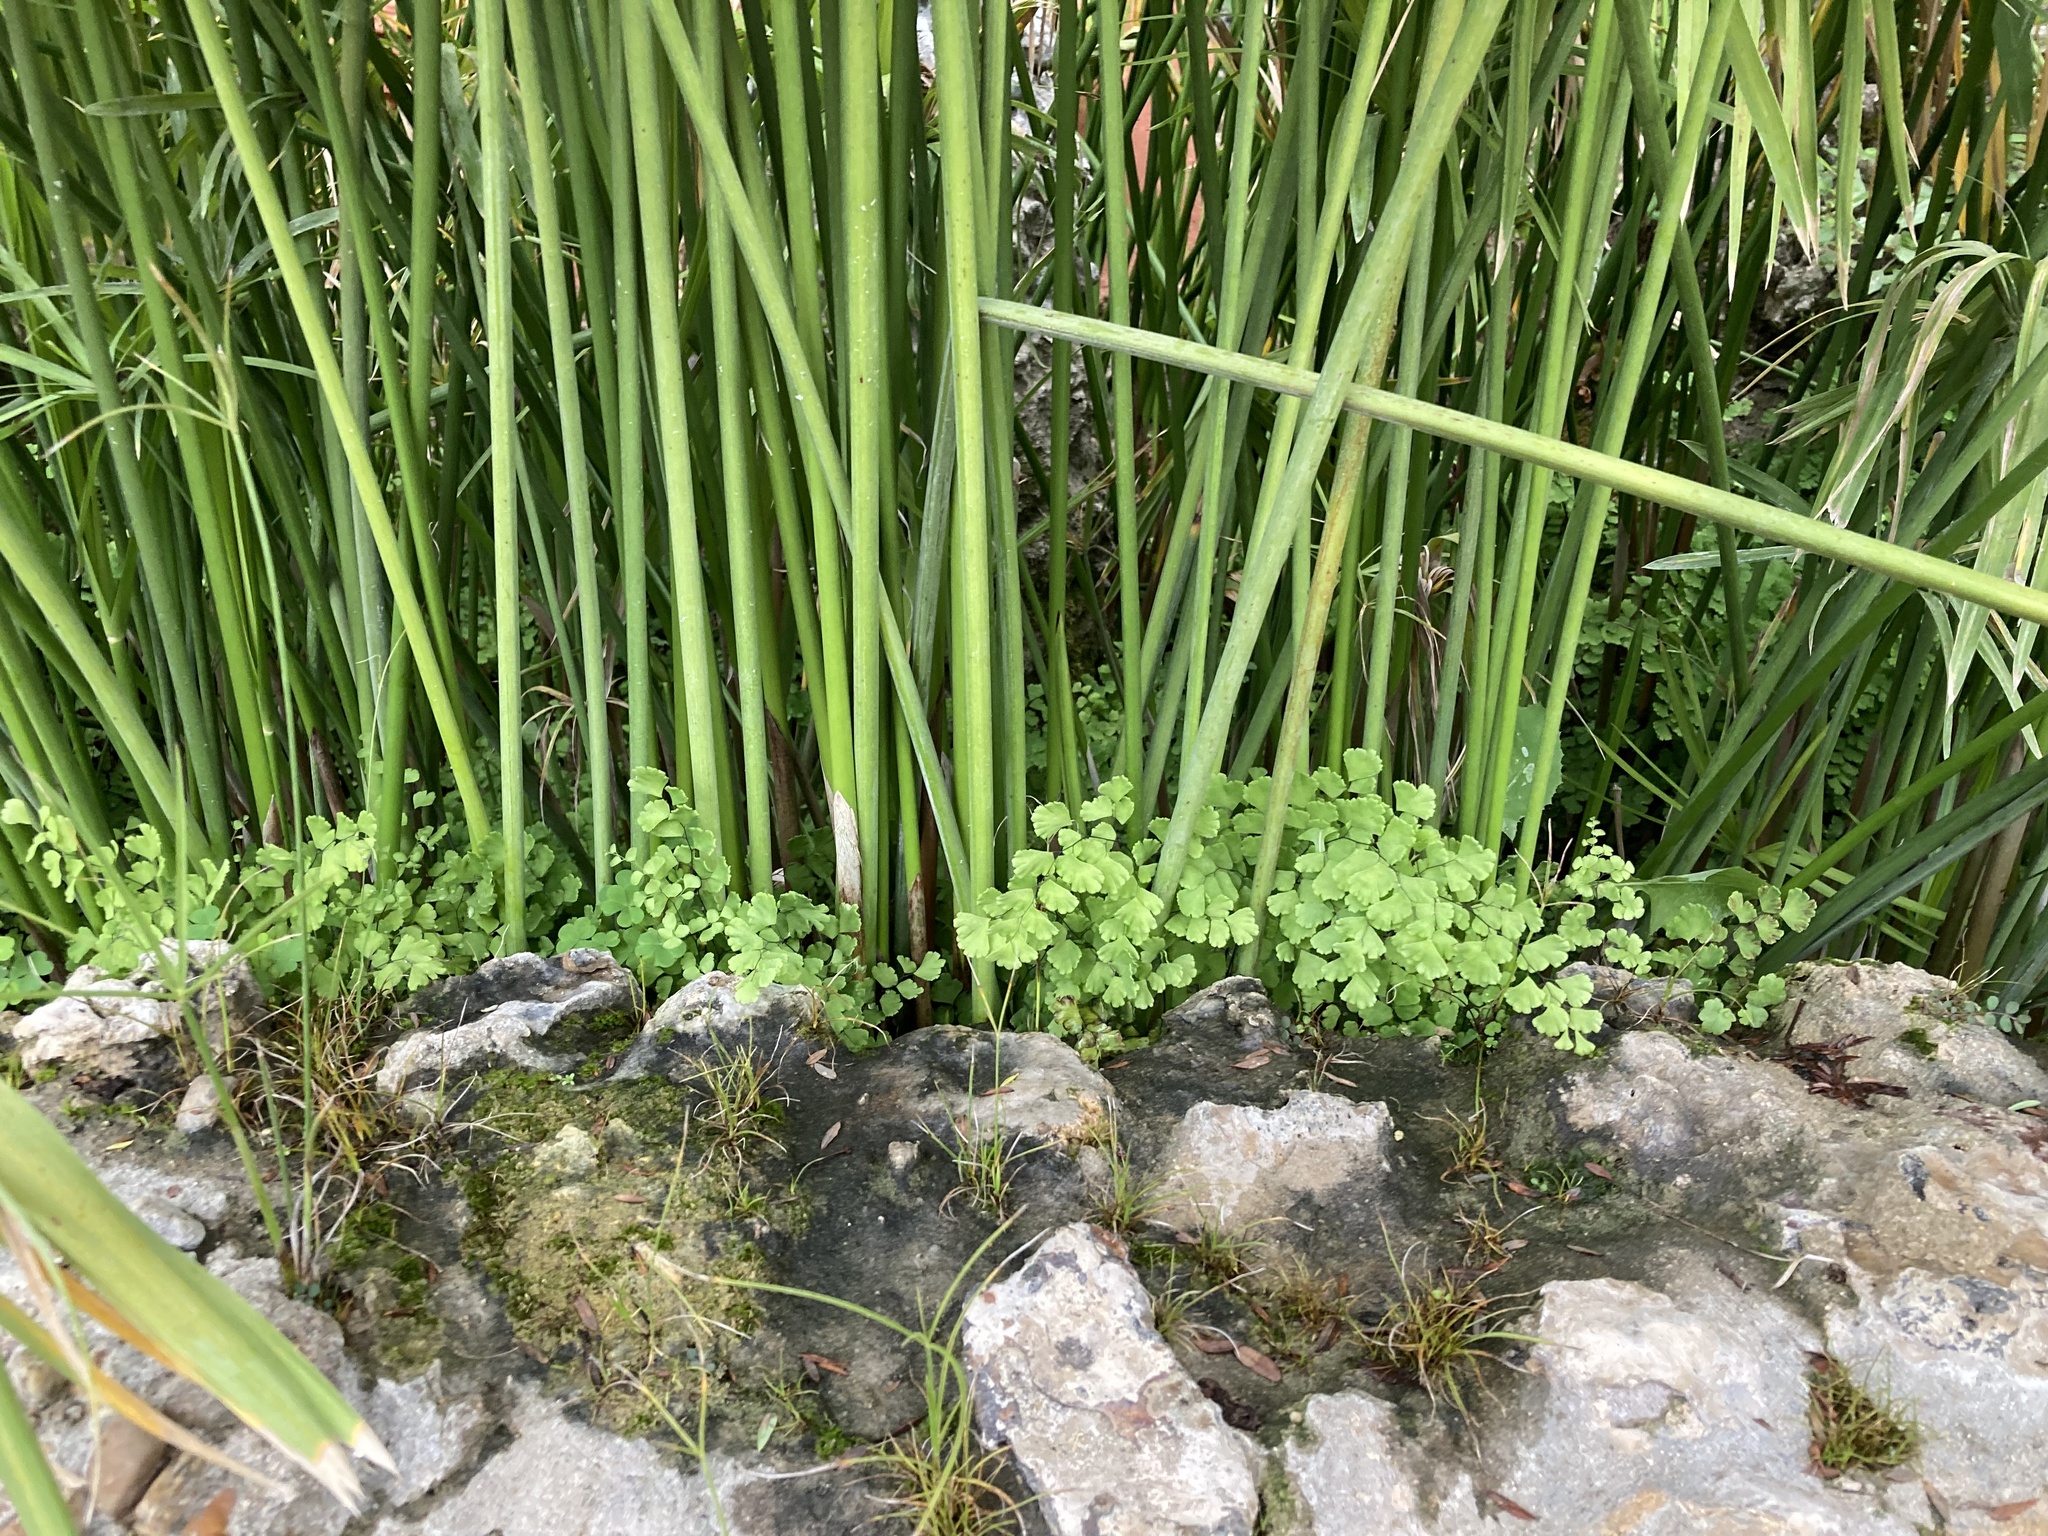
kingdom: Plantae
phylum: Tracheophyta
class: Polypodiopsida
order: Polypodiales
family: Pteridaceae
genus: Adiantum
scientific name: Adiantum capillus-veneris
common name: Maidenhair fern
